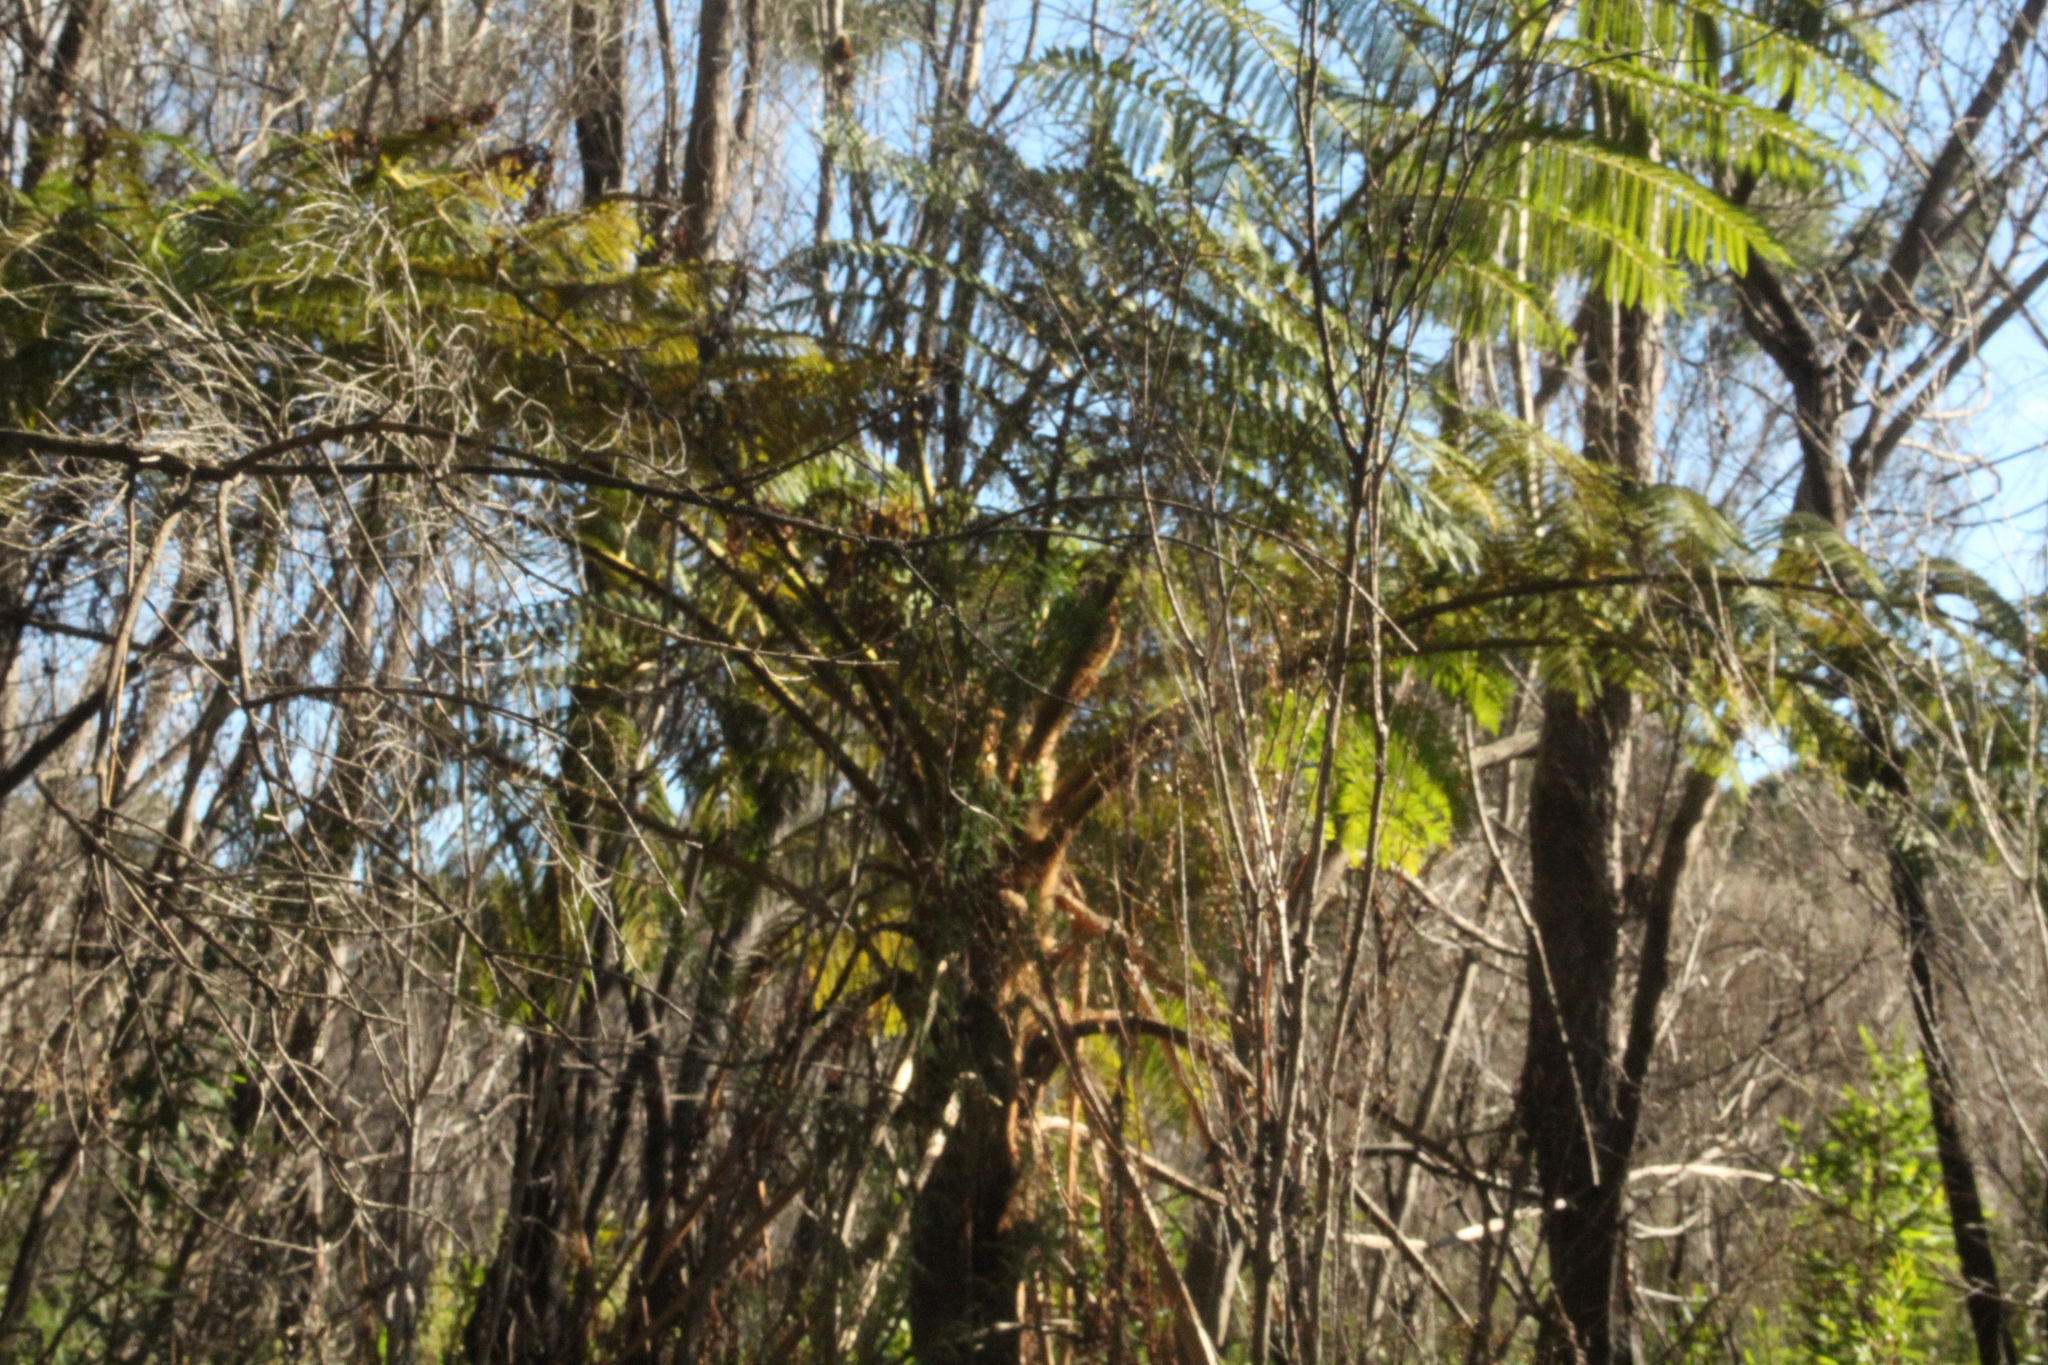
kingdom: Plantae
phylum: Tracheophyta
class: Polypodiopsida
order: Cyatheales
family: Cyatheaceae
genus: Sphaeropteris
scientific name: Sphaeropteris cooperi
